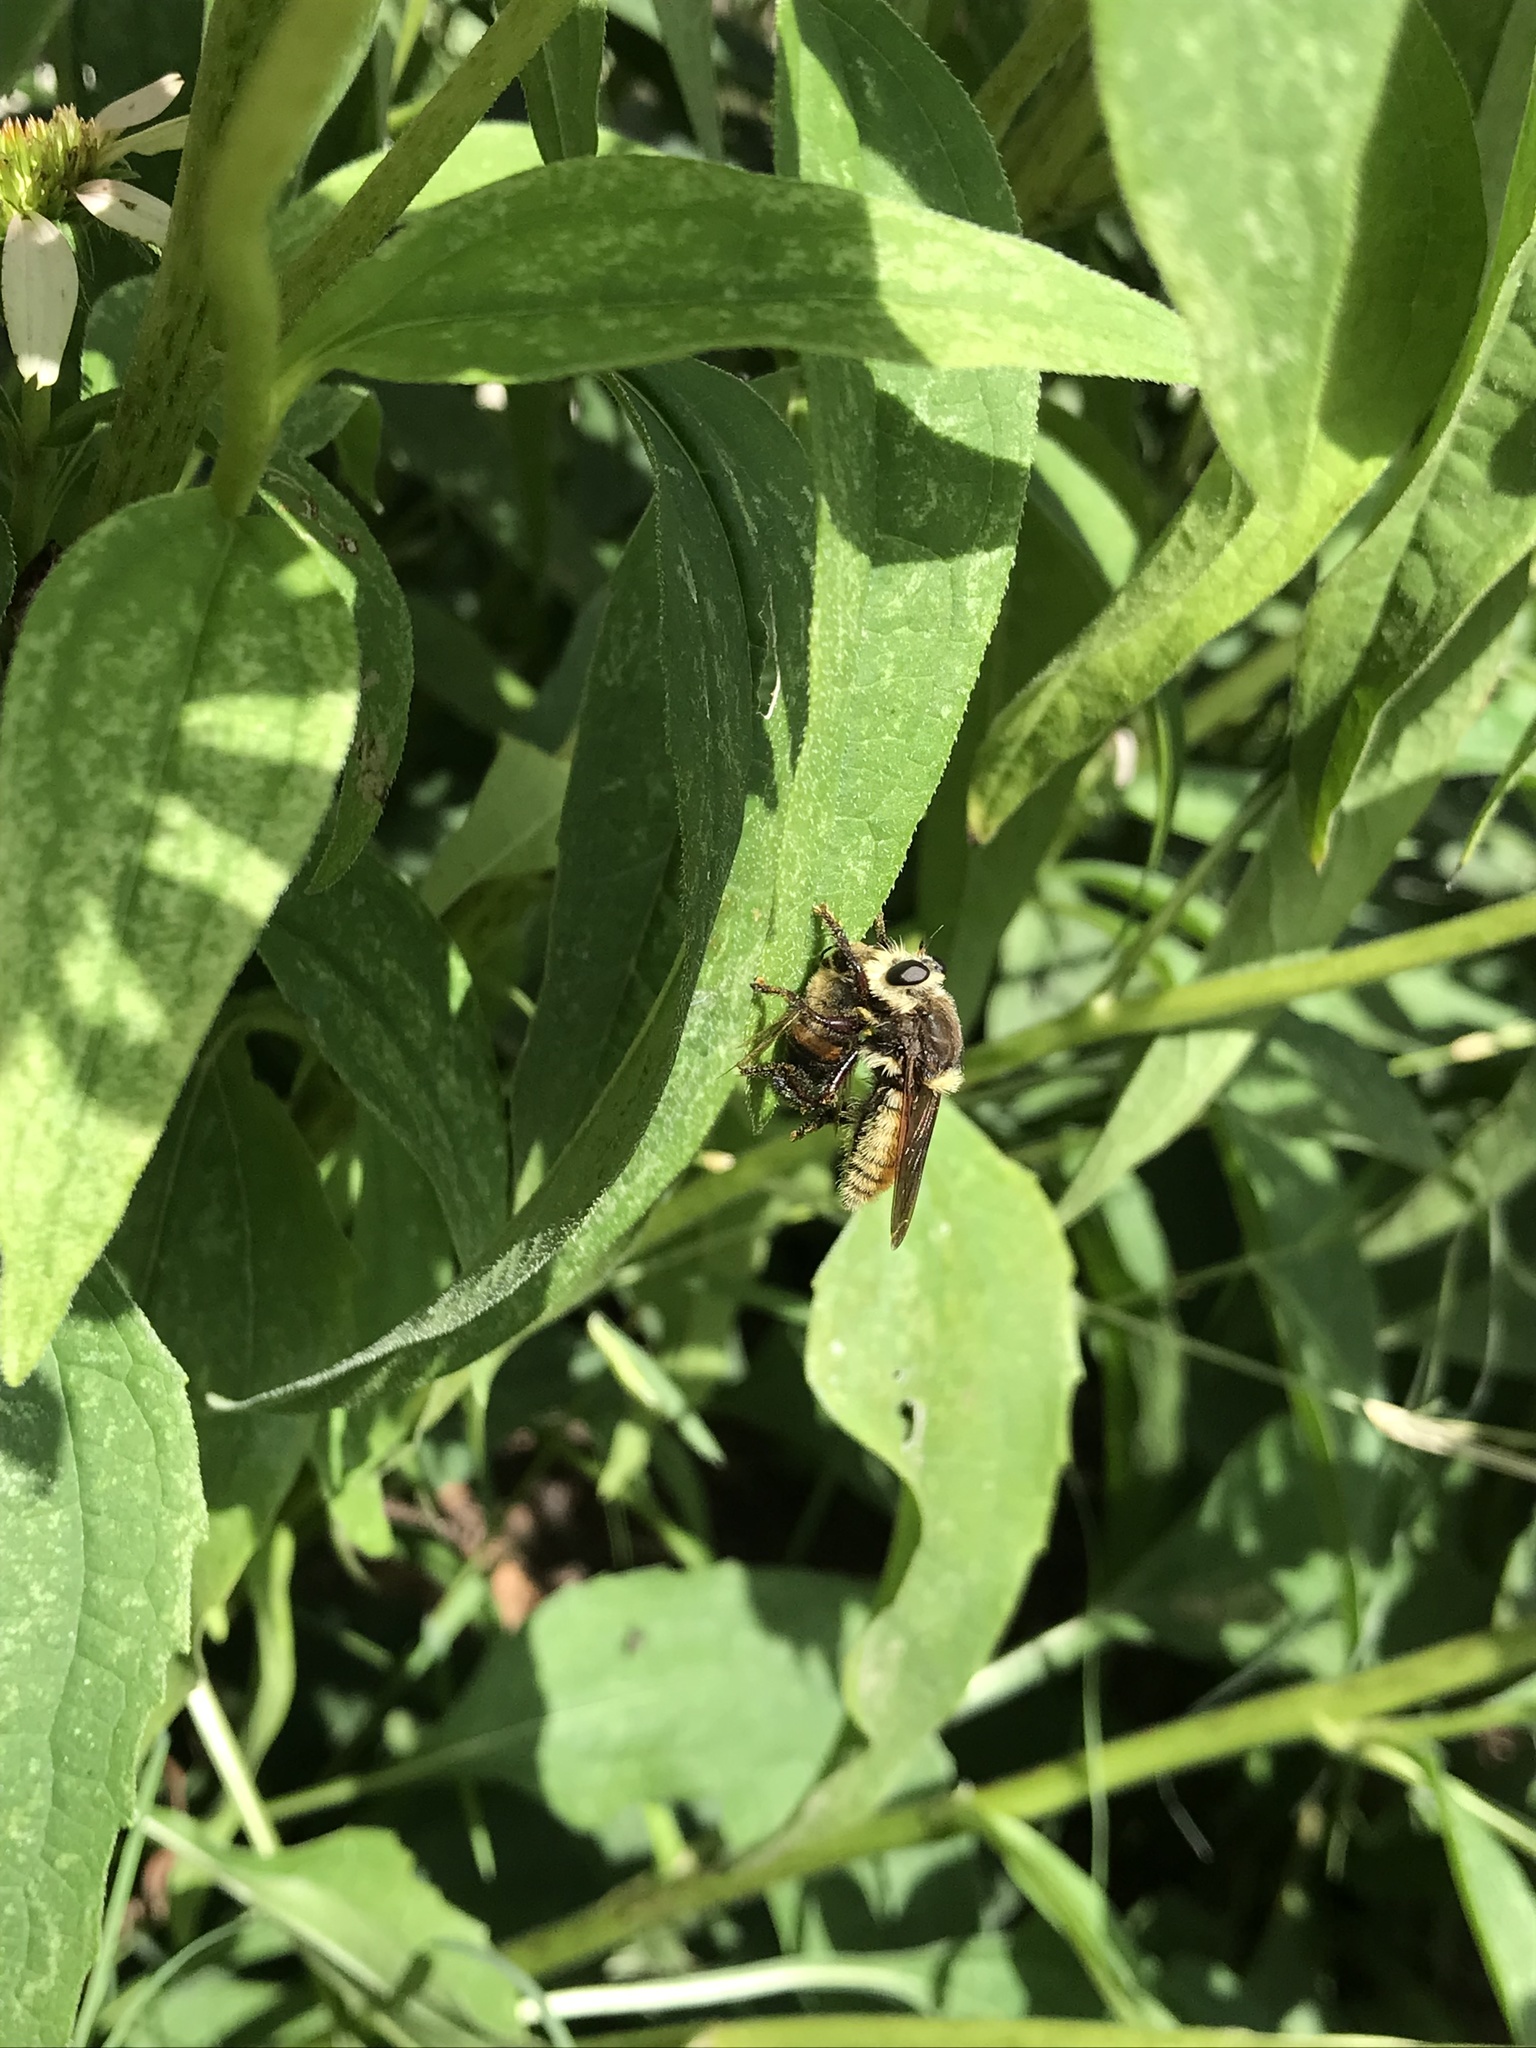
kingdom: Animalia
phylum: Arthropoda
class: Insecta
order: Diptera
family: Asilidae
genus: Mallophora
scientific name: Mallophora fautrix
